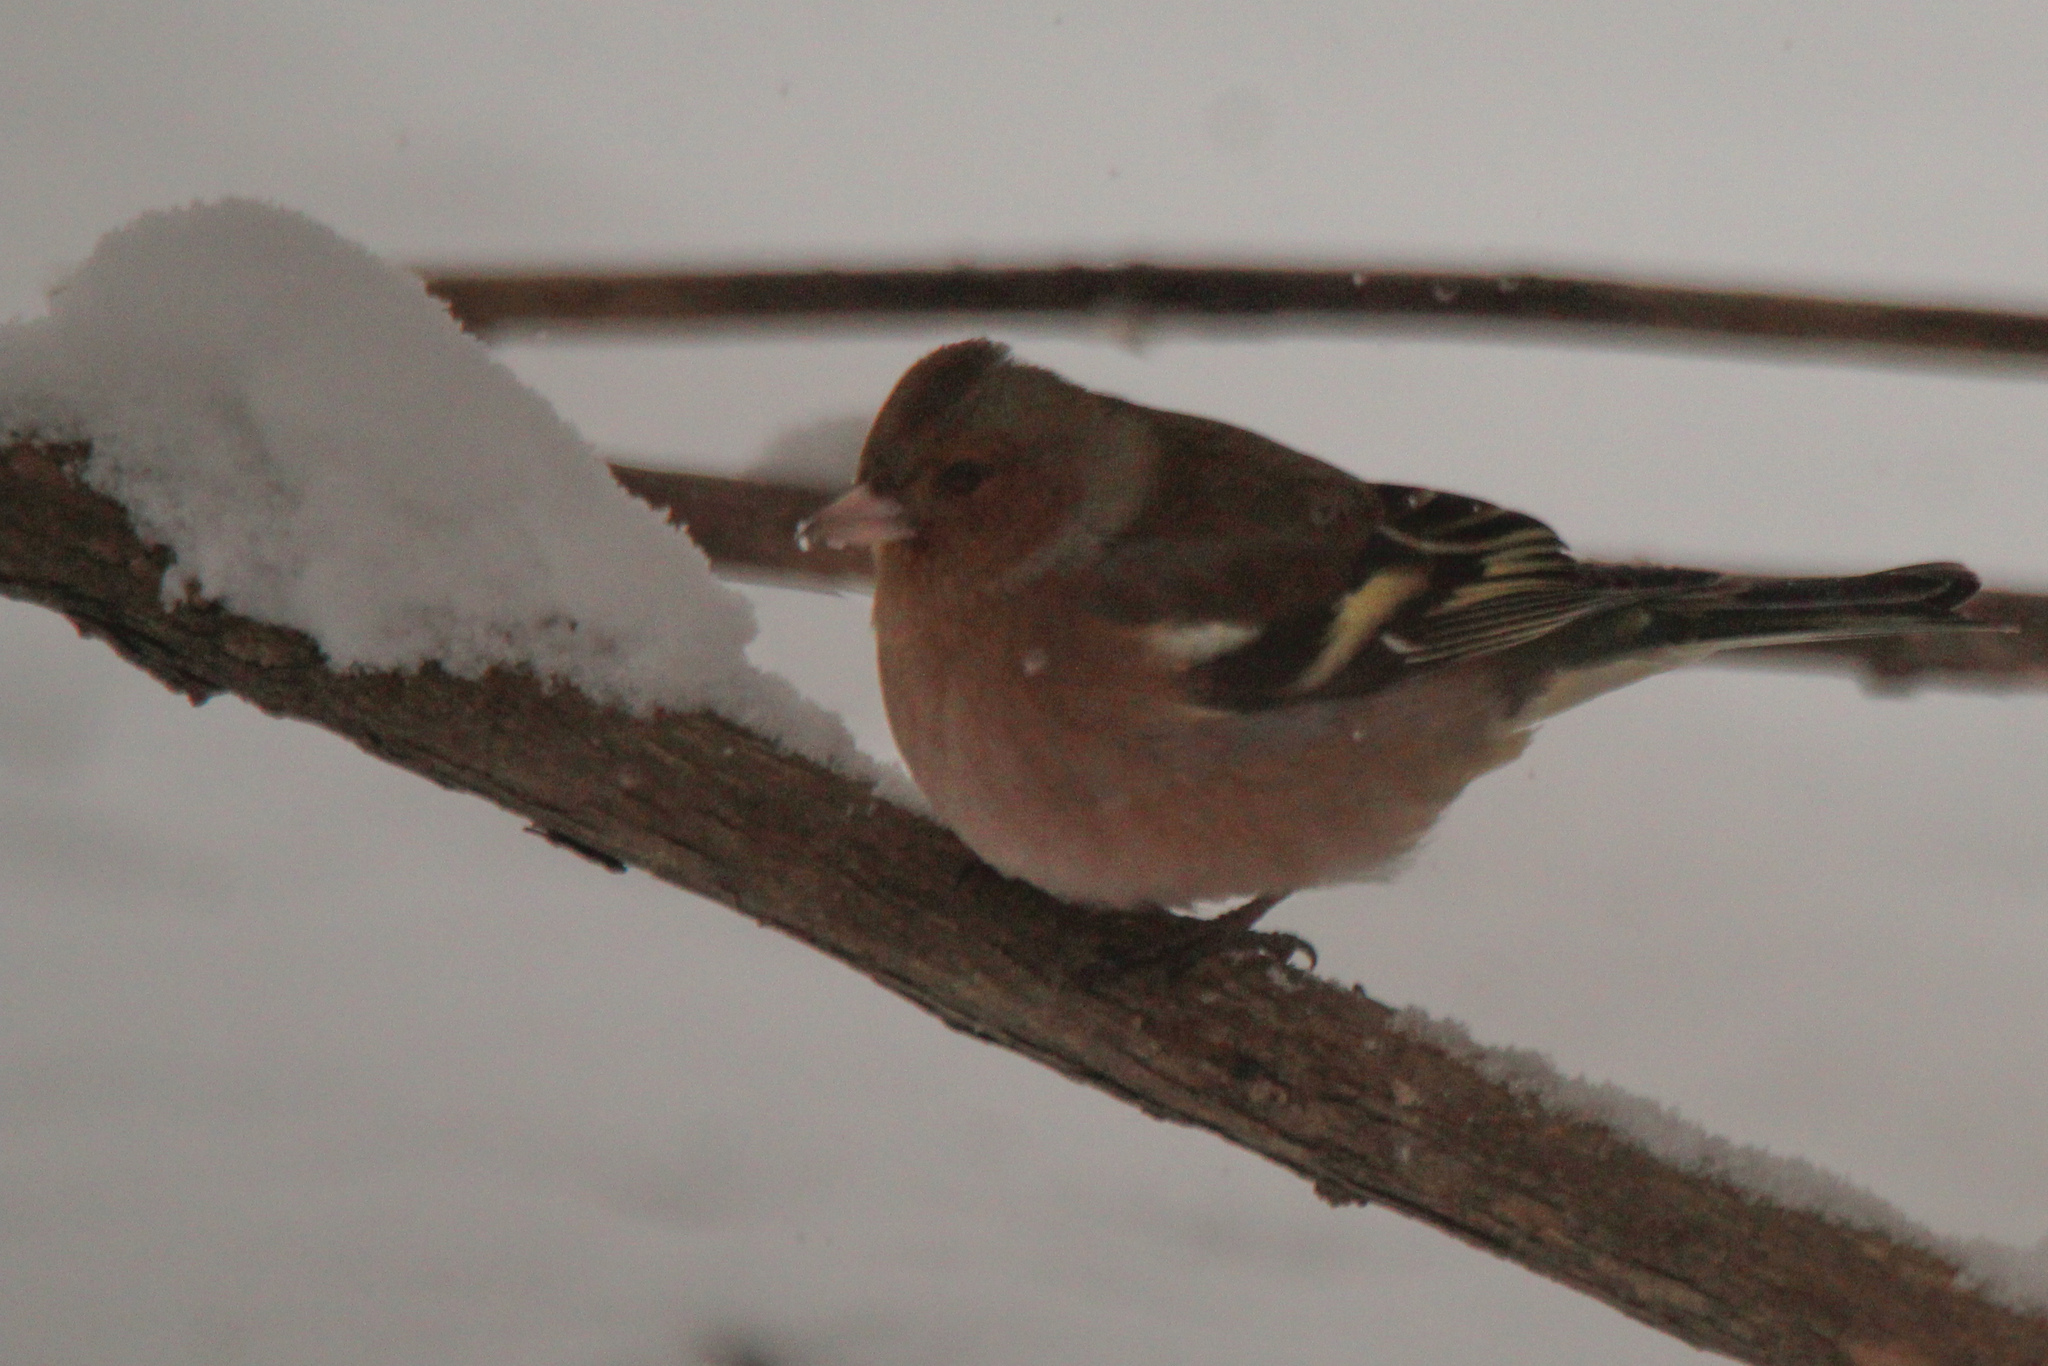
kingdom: Animalia
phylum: Chordata
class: Aves
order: Passeriformes
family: Fringillidae
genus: Fringilla
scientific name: Fringilla coelebs
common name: Common chaffinch
